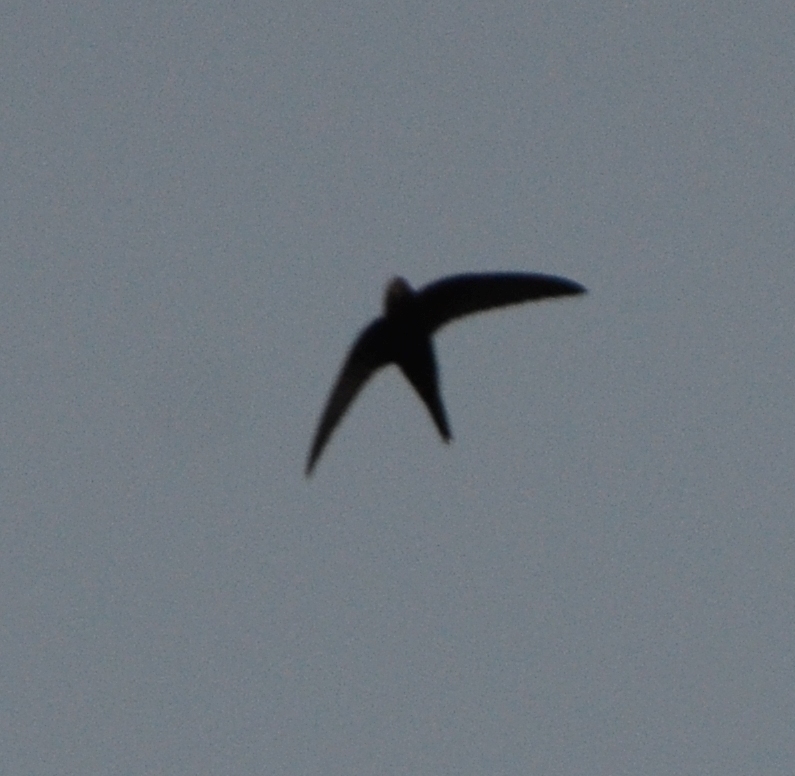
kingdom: Animalia
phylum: Chordata
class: Aves
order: Apodiformes
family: Apodidae
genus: Apus
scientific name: Apus apus
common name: Common swift
